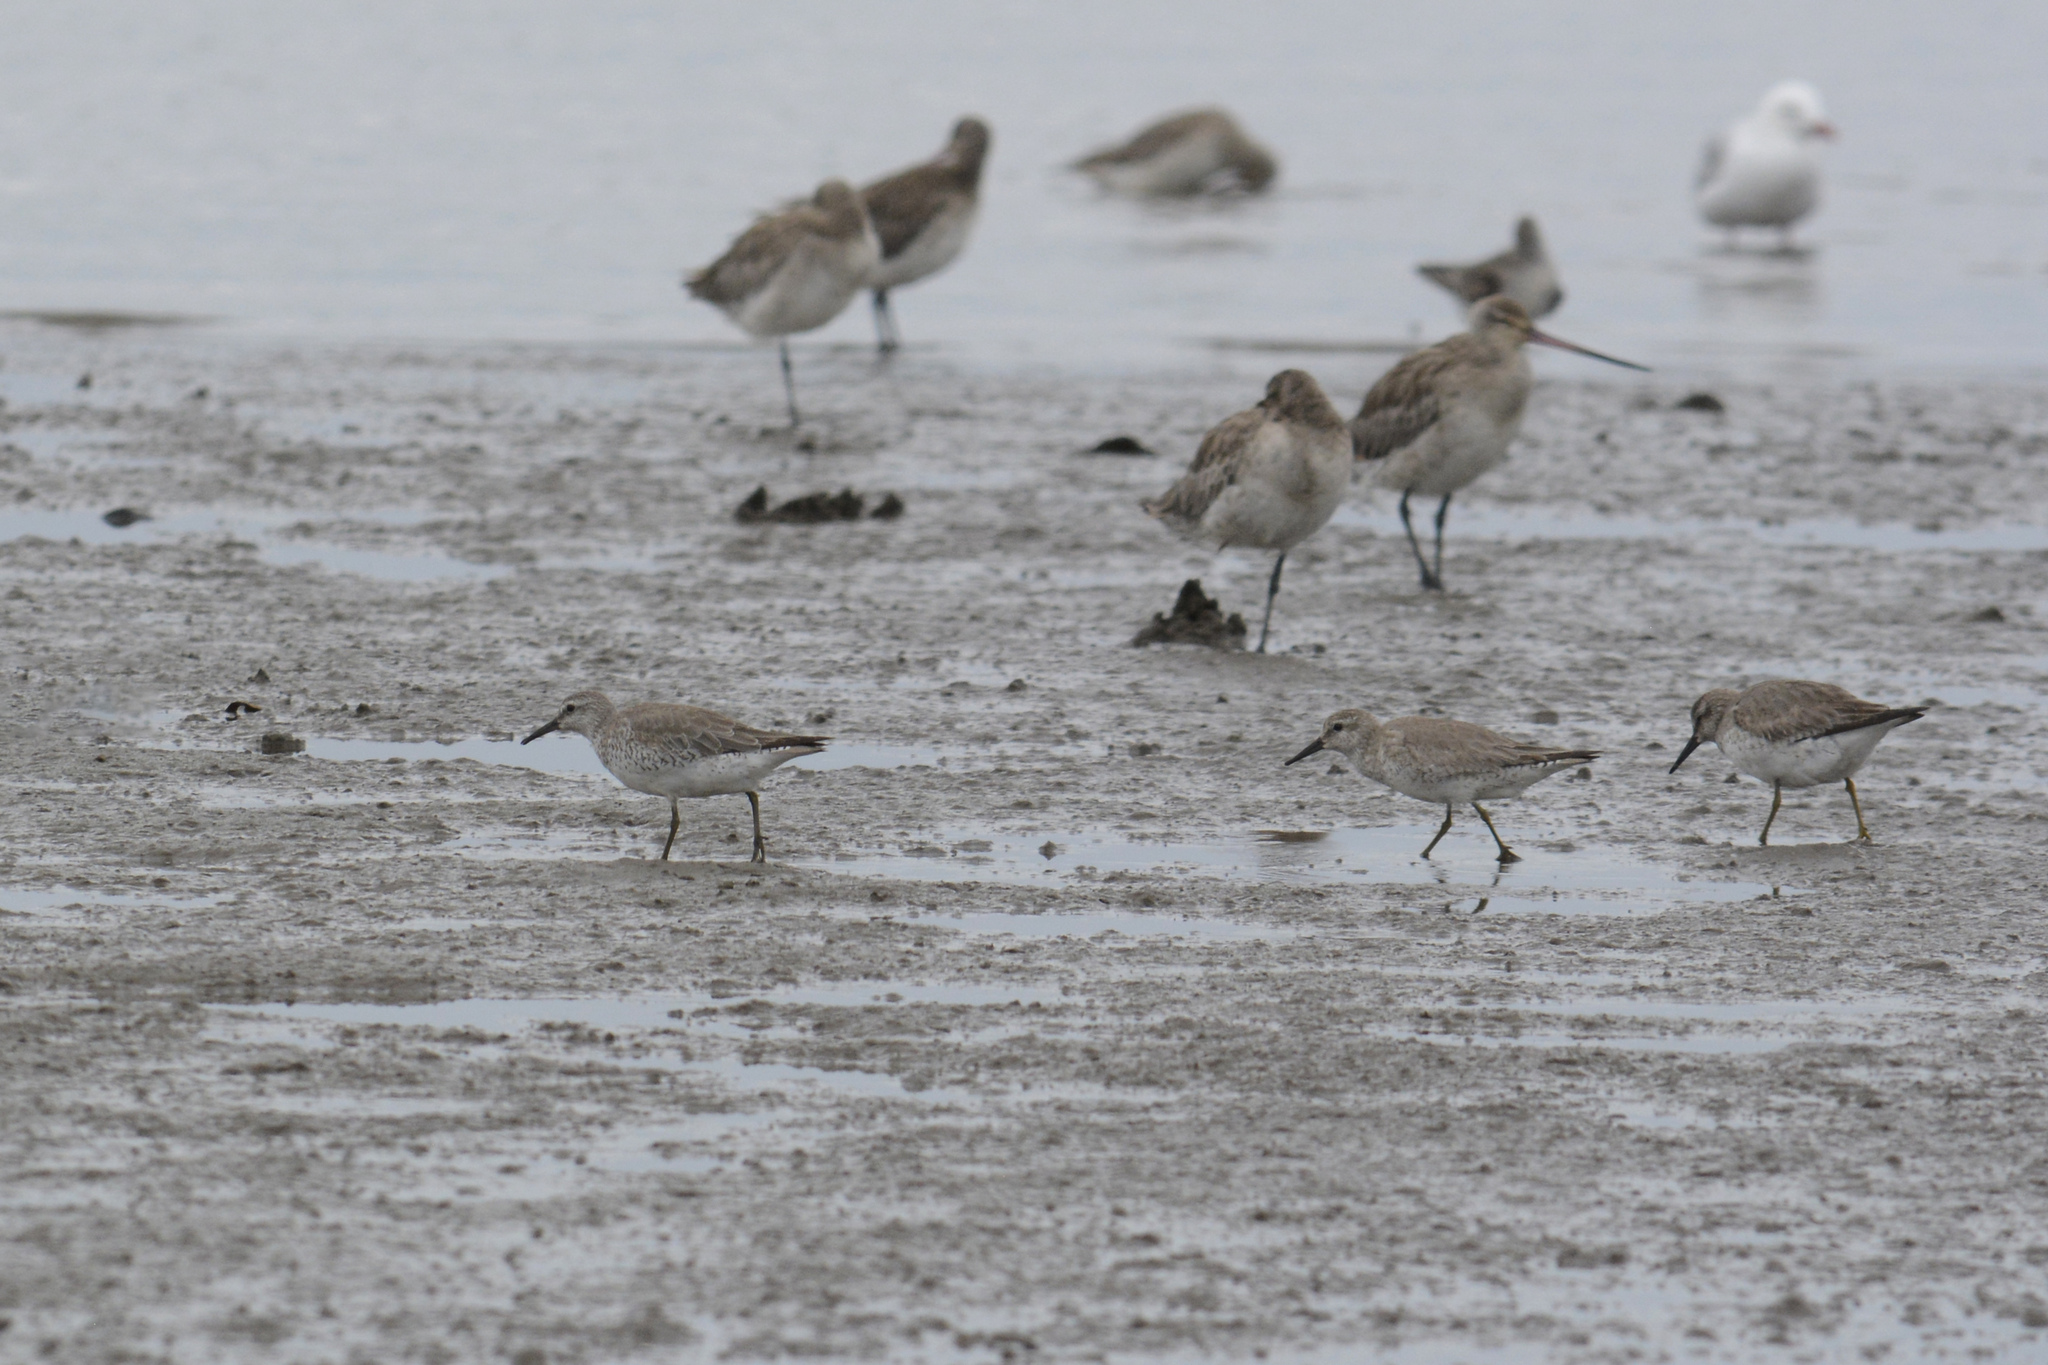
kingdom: Animalia
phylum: Chordata
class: Aves
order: Charadriiformes
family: Scolopacidae
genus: Calidris
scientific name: Calidris canutus
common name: Red knot
